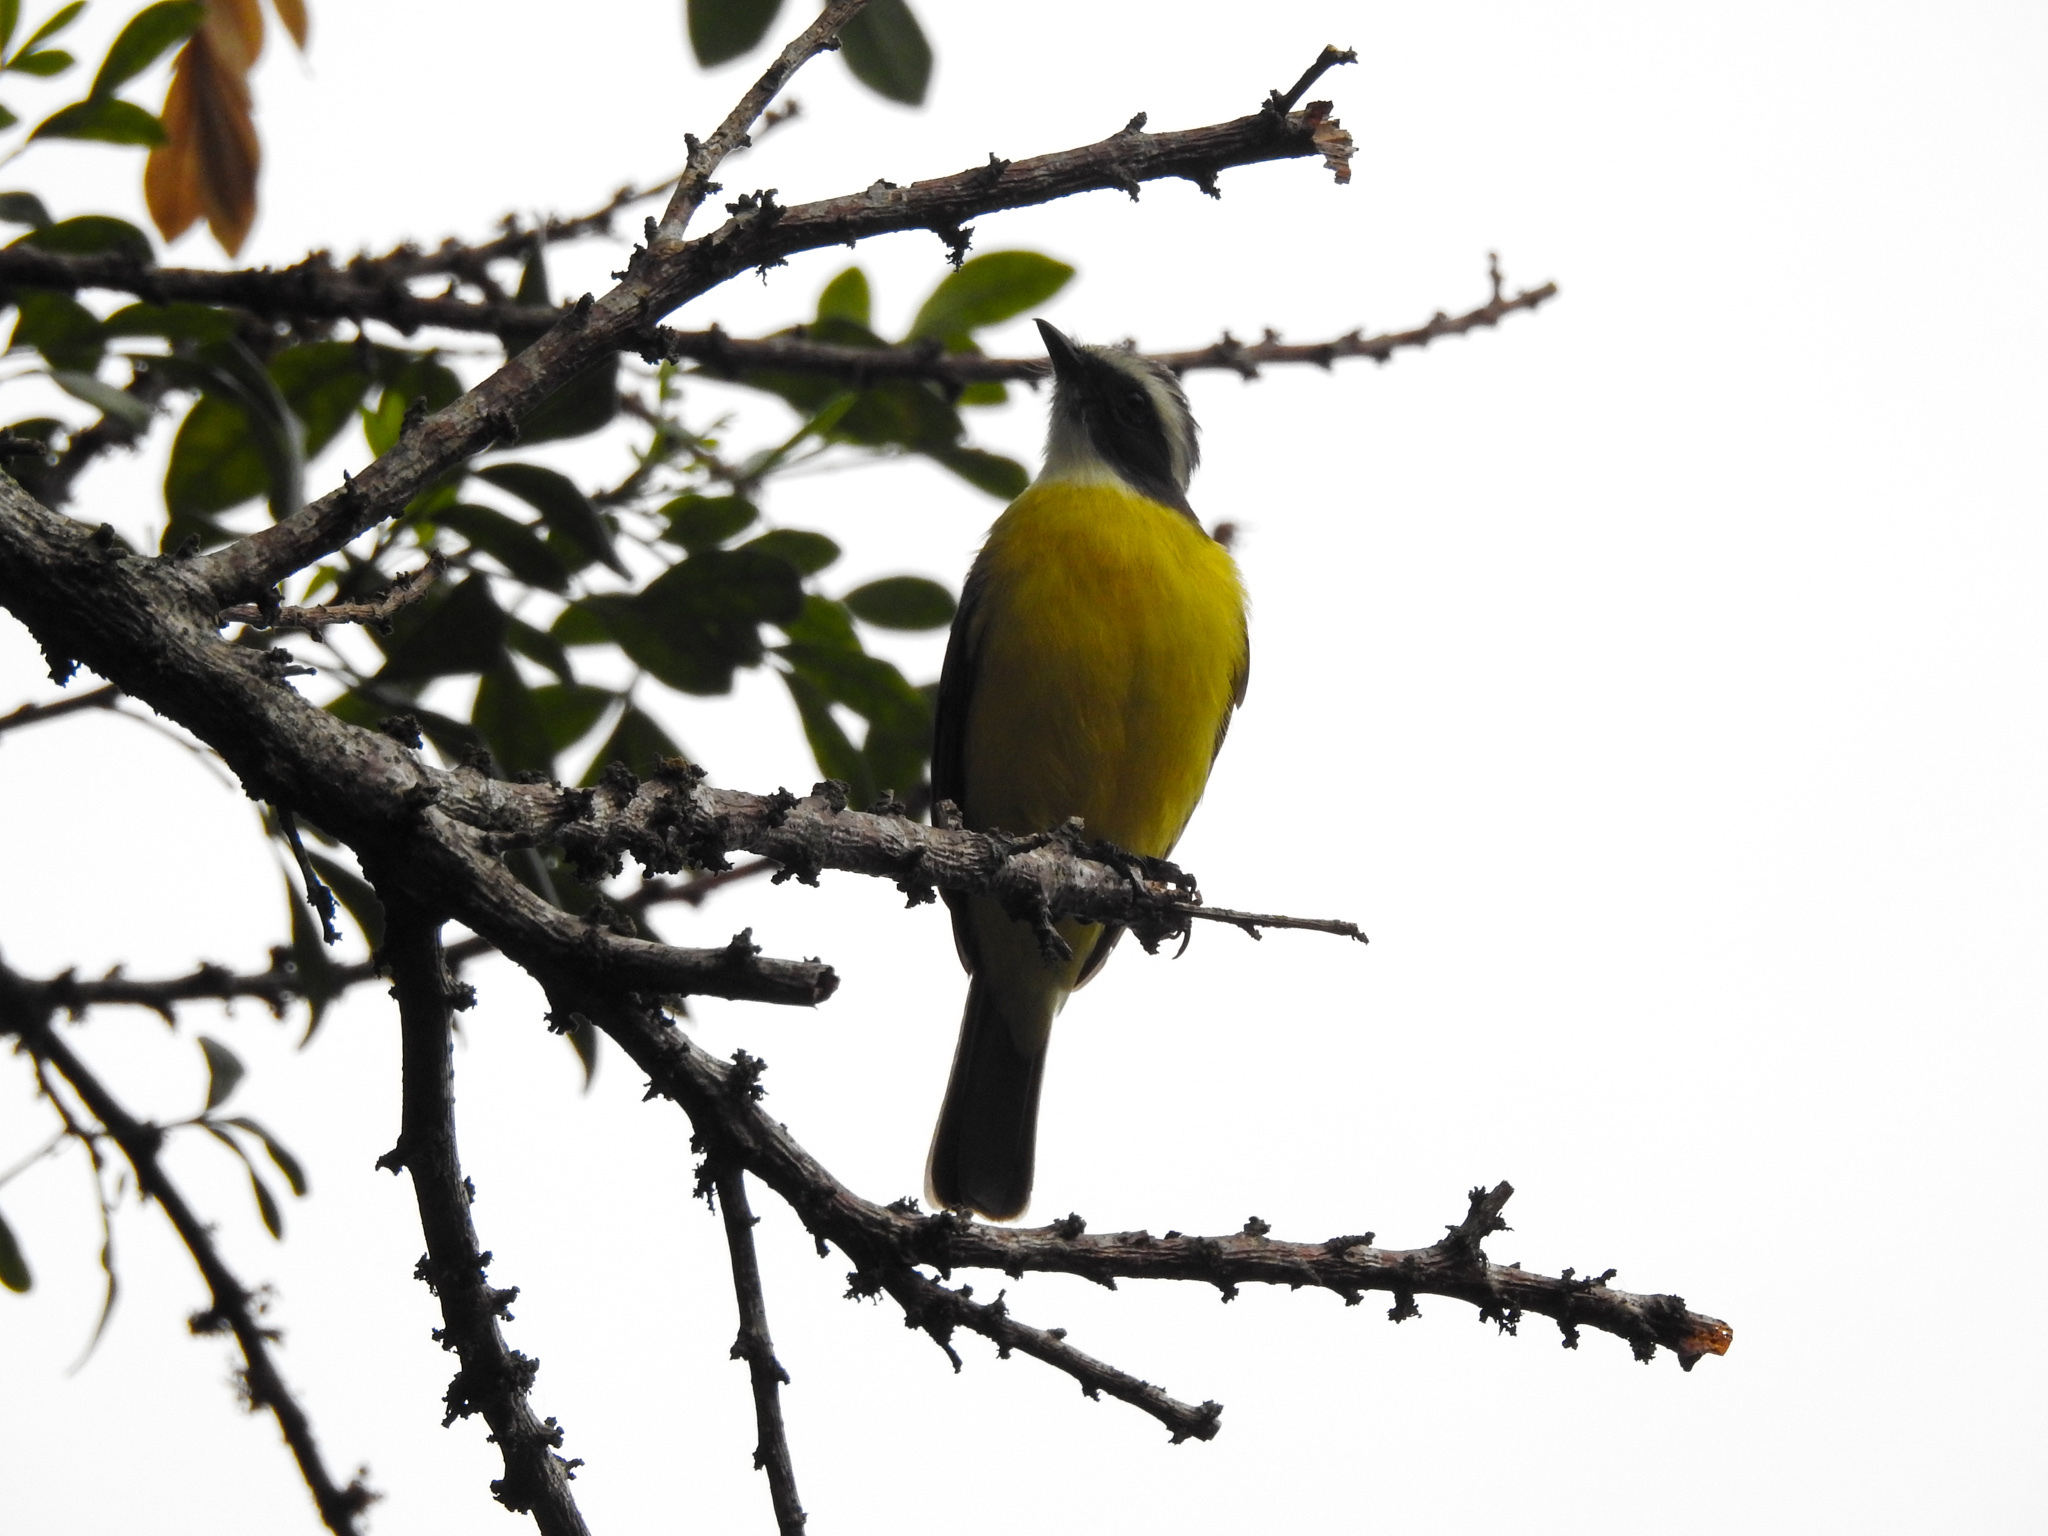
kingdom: Animalia
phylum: Chordata
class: Aves
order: Passeriformes
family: Tyrannidae
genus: Myiozetetes
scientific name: Myiozetetes similis
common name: Social flycatcher
